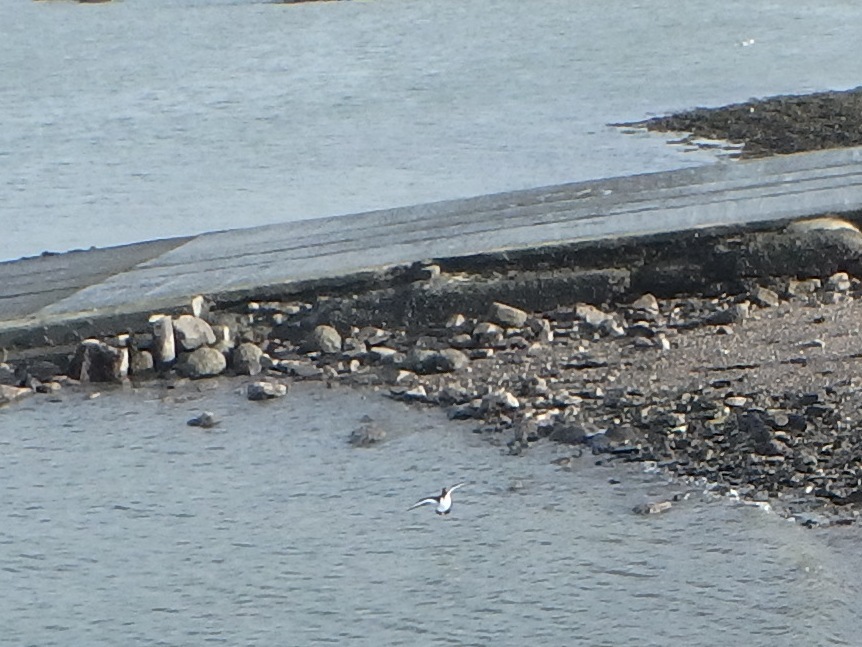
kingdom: Animalia
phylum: Chordata
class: Aves
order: Charadriiformes
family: Haematopodidae
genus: Haematopus
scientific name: Haematopus ostralegus
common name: Eurasian oystercatcher
